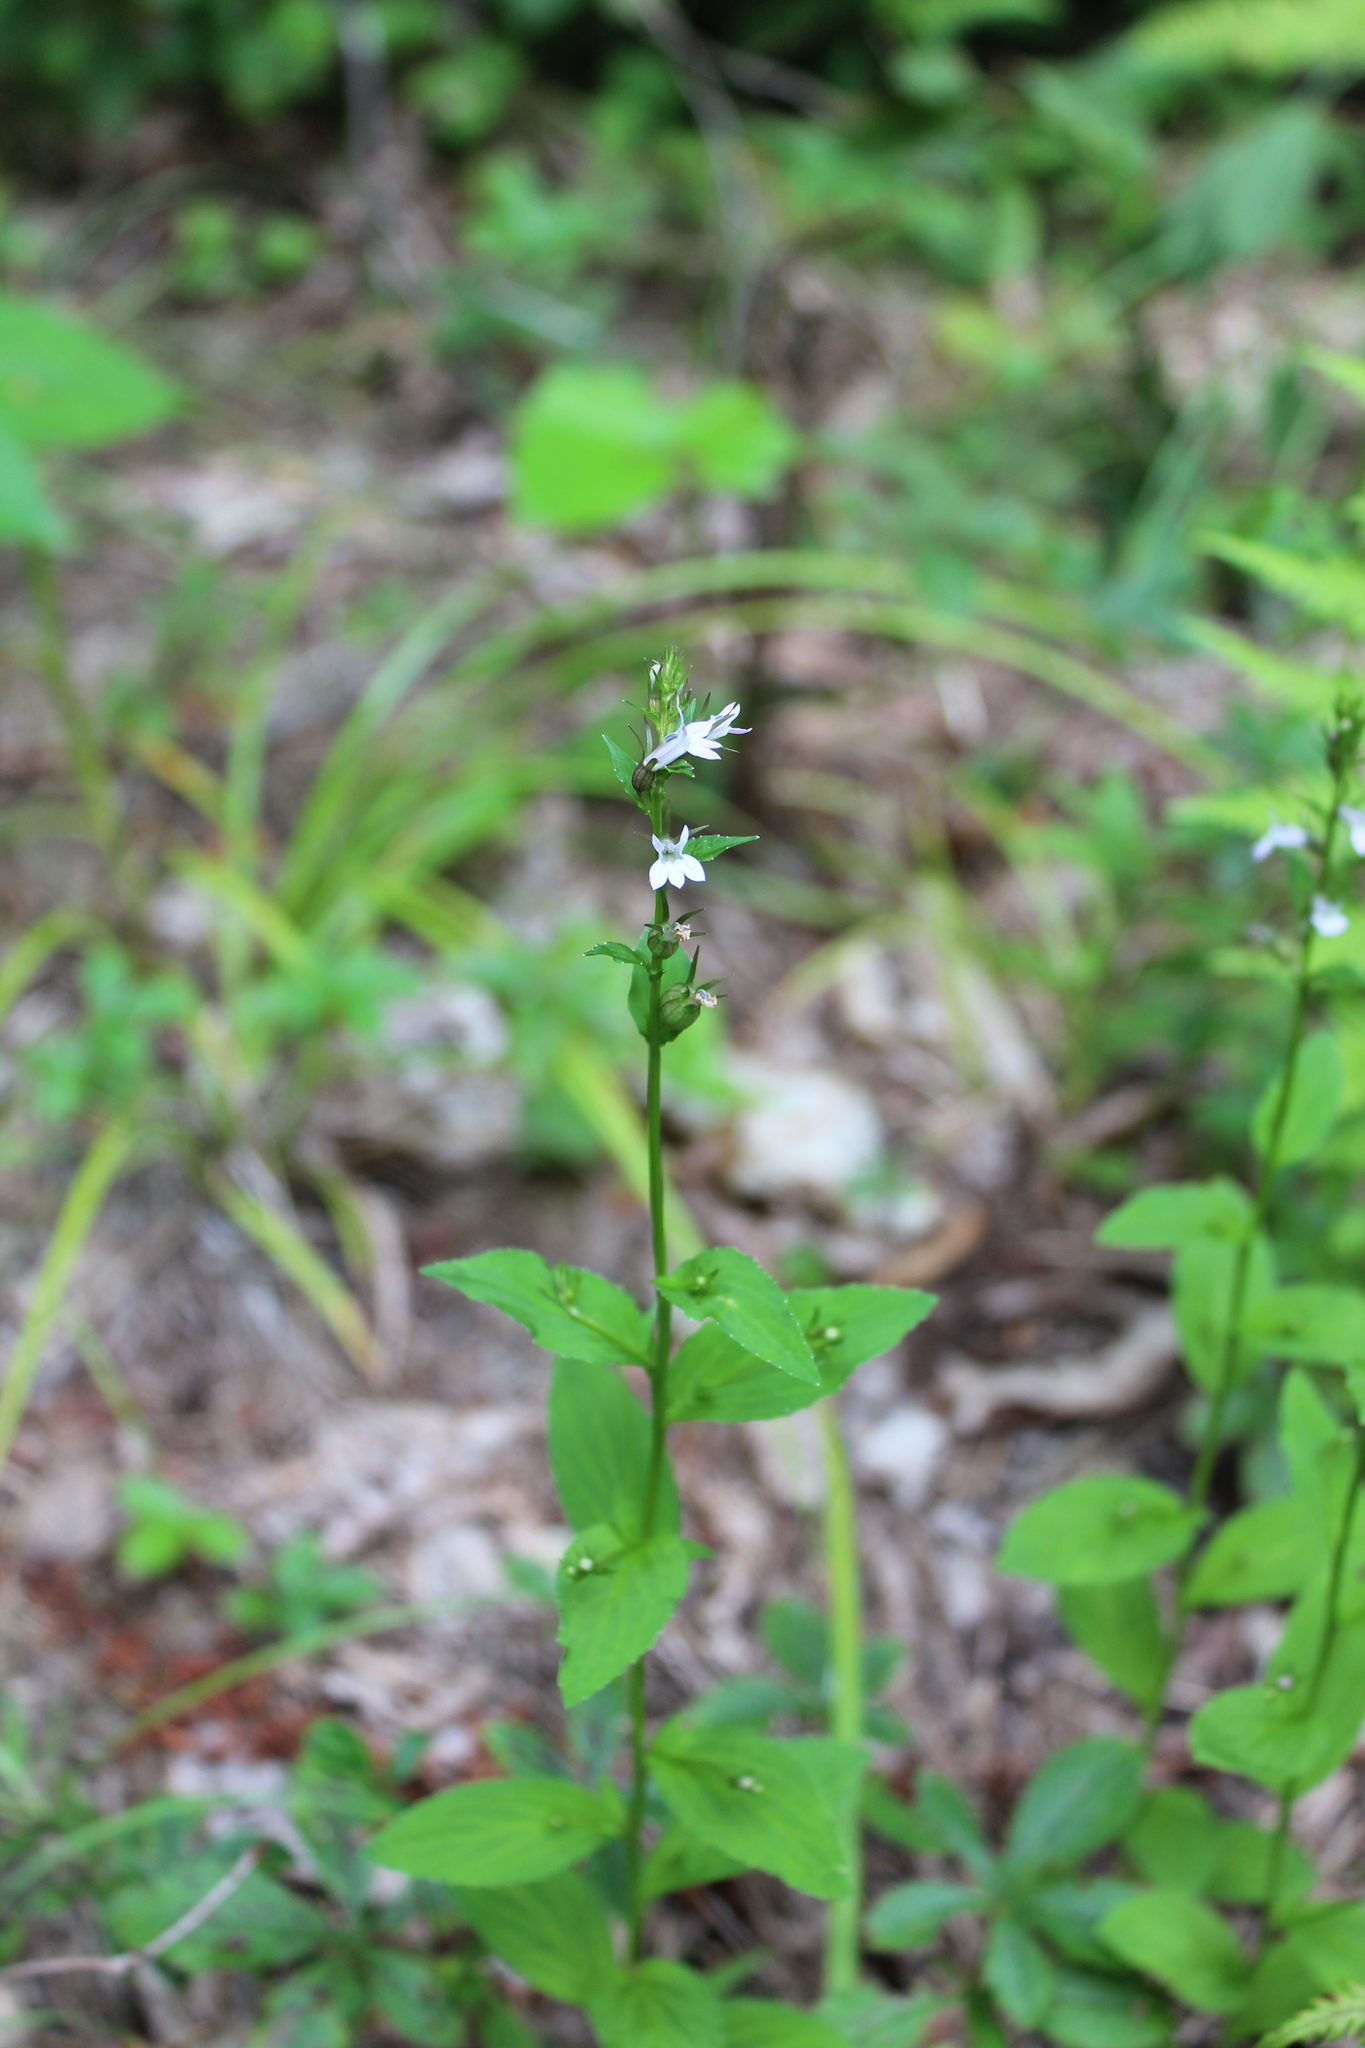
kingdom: Plantae
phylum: Tracheophyta
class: Magnoliopsida
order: Asterales
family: Campanulaceae
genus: Lobelia
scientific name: Lobelia inflata
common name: Indian tobacco
